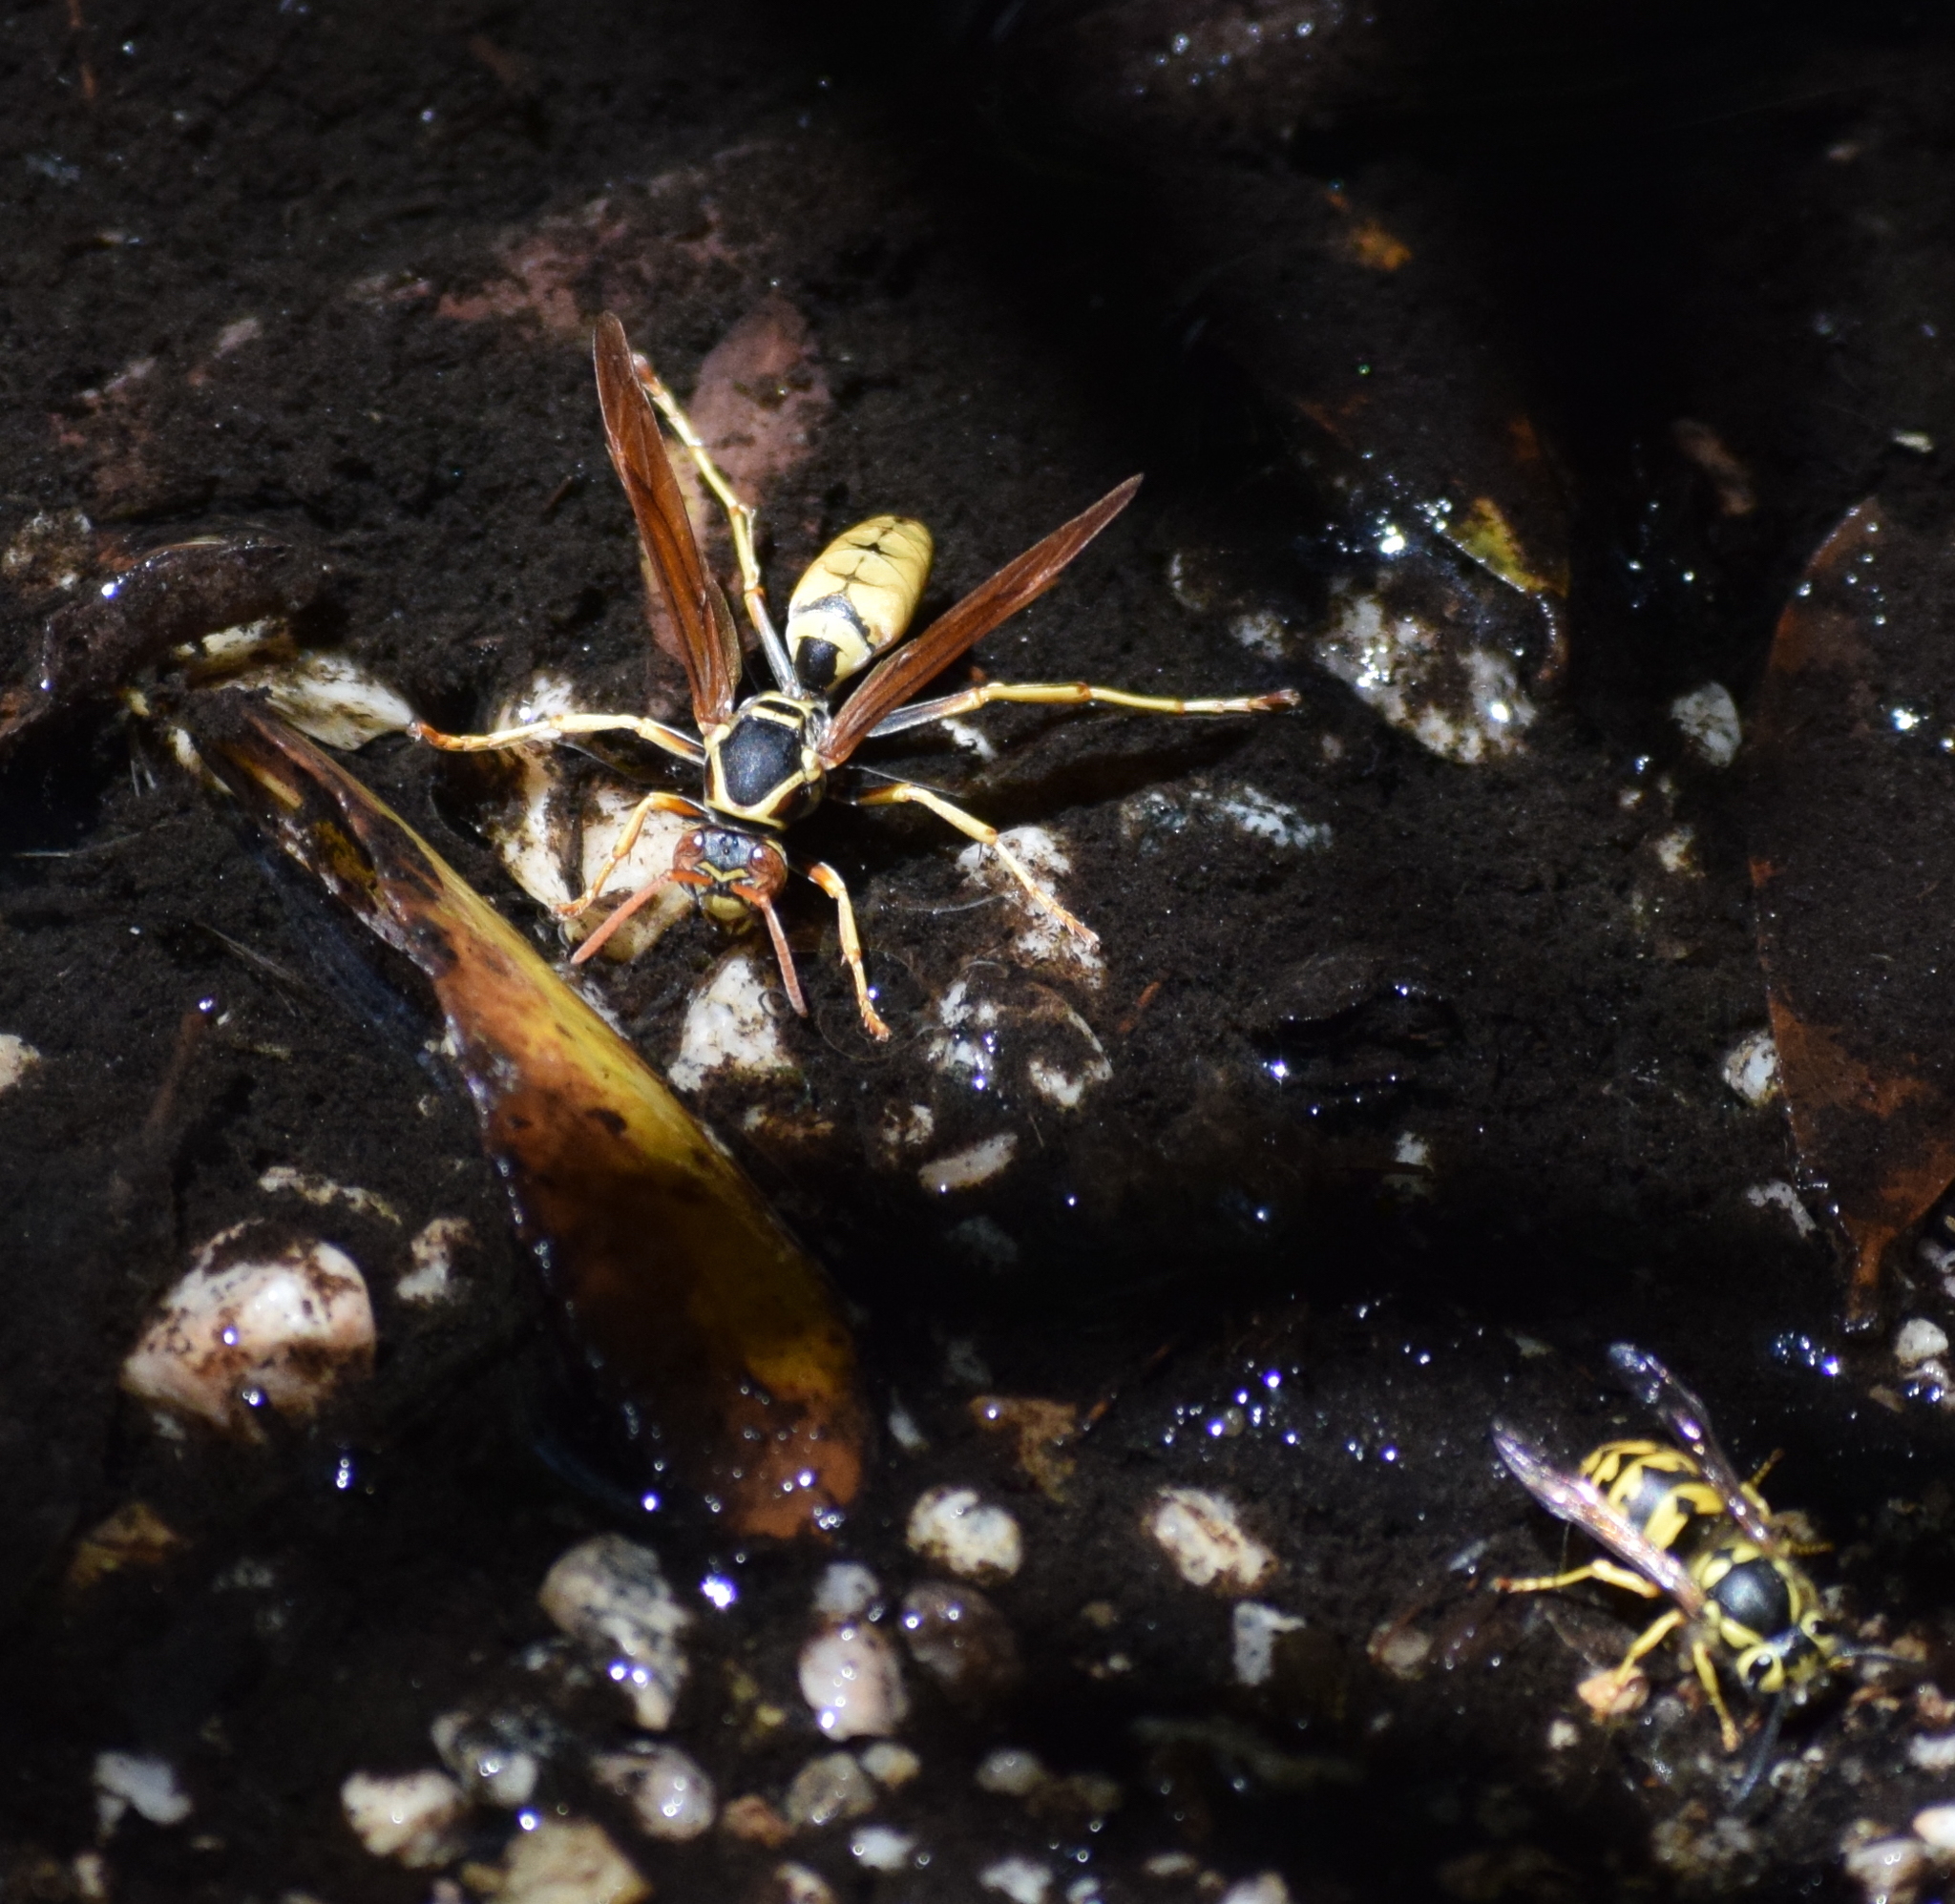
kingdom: Animalia
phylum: Arthropoda
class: Insecta
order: Hymenoptera
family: Eumenidae
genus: Polistes
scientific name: Polistes aurifer
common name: Paper wasp
